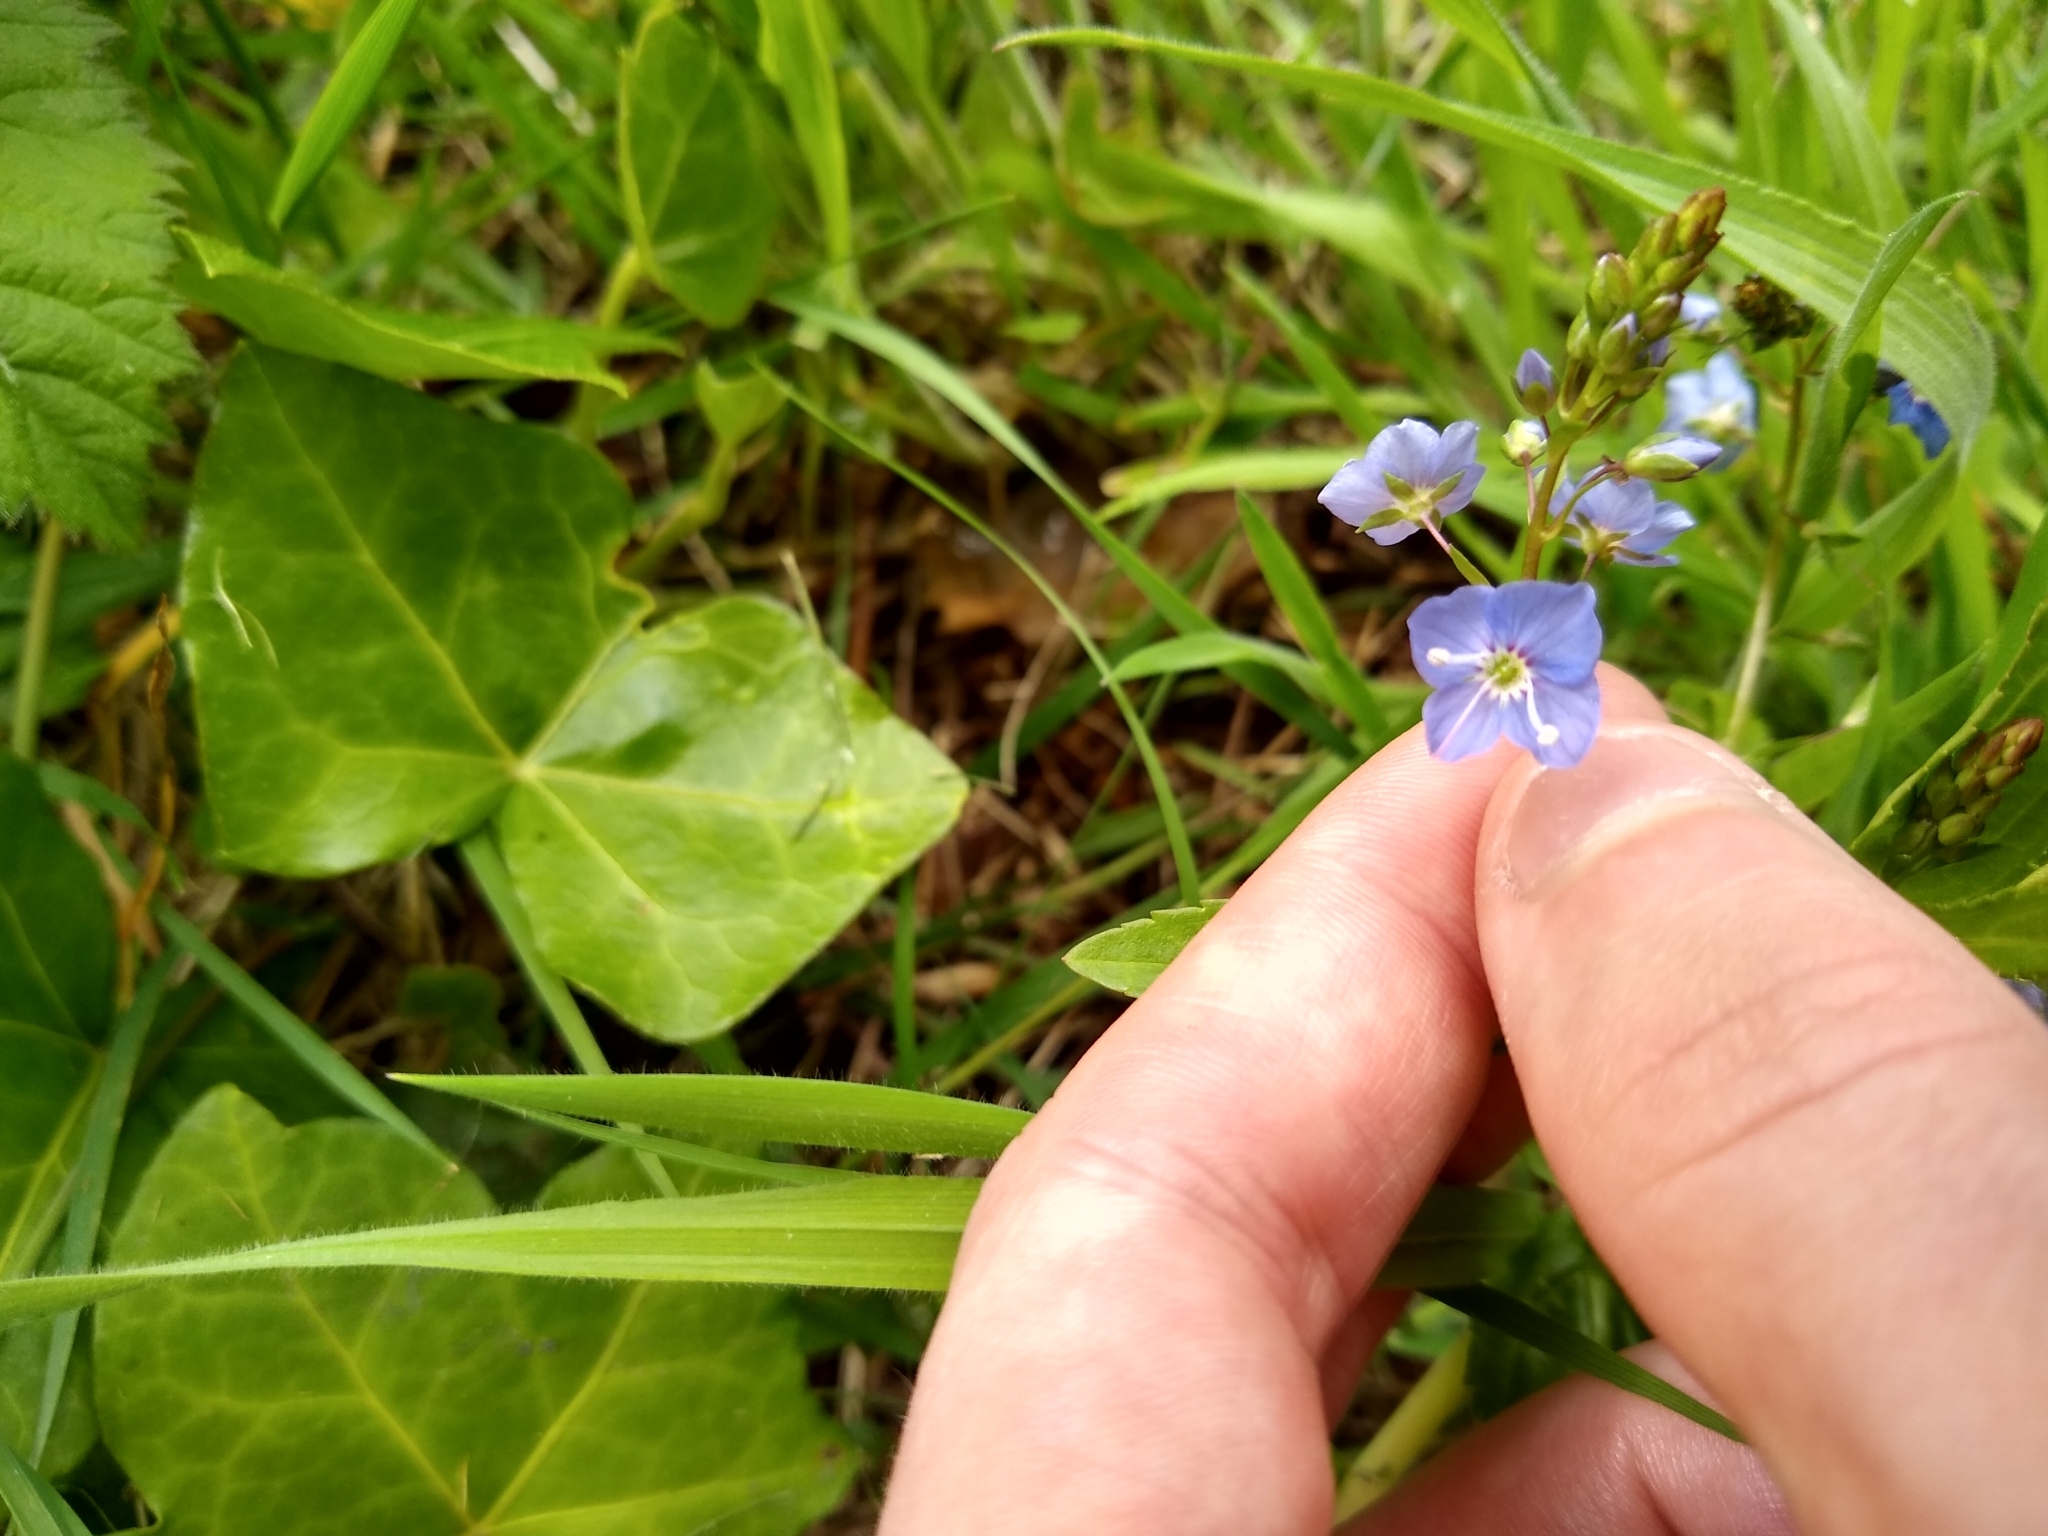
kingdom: Plantae
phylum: Tracheophyta
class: Magnoliopsida
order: Lamiales
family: Plantaginaceae
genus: Veronica
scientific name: Veronica americana
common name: American brooklime
